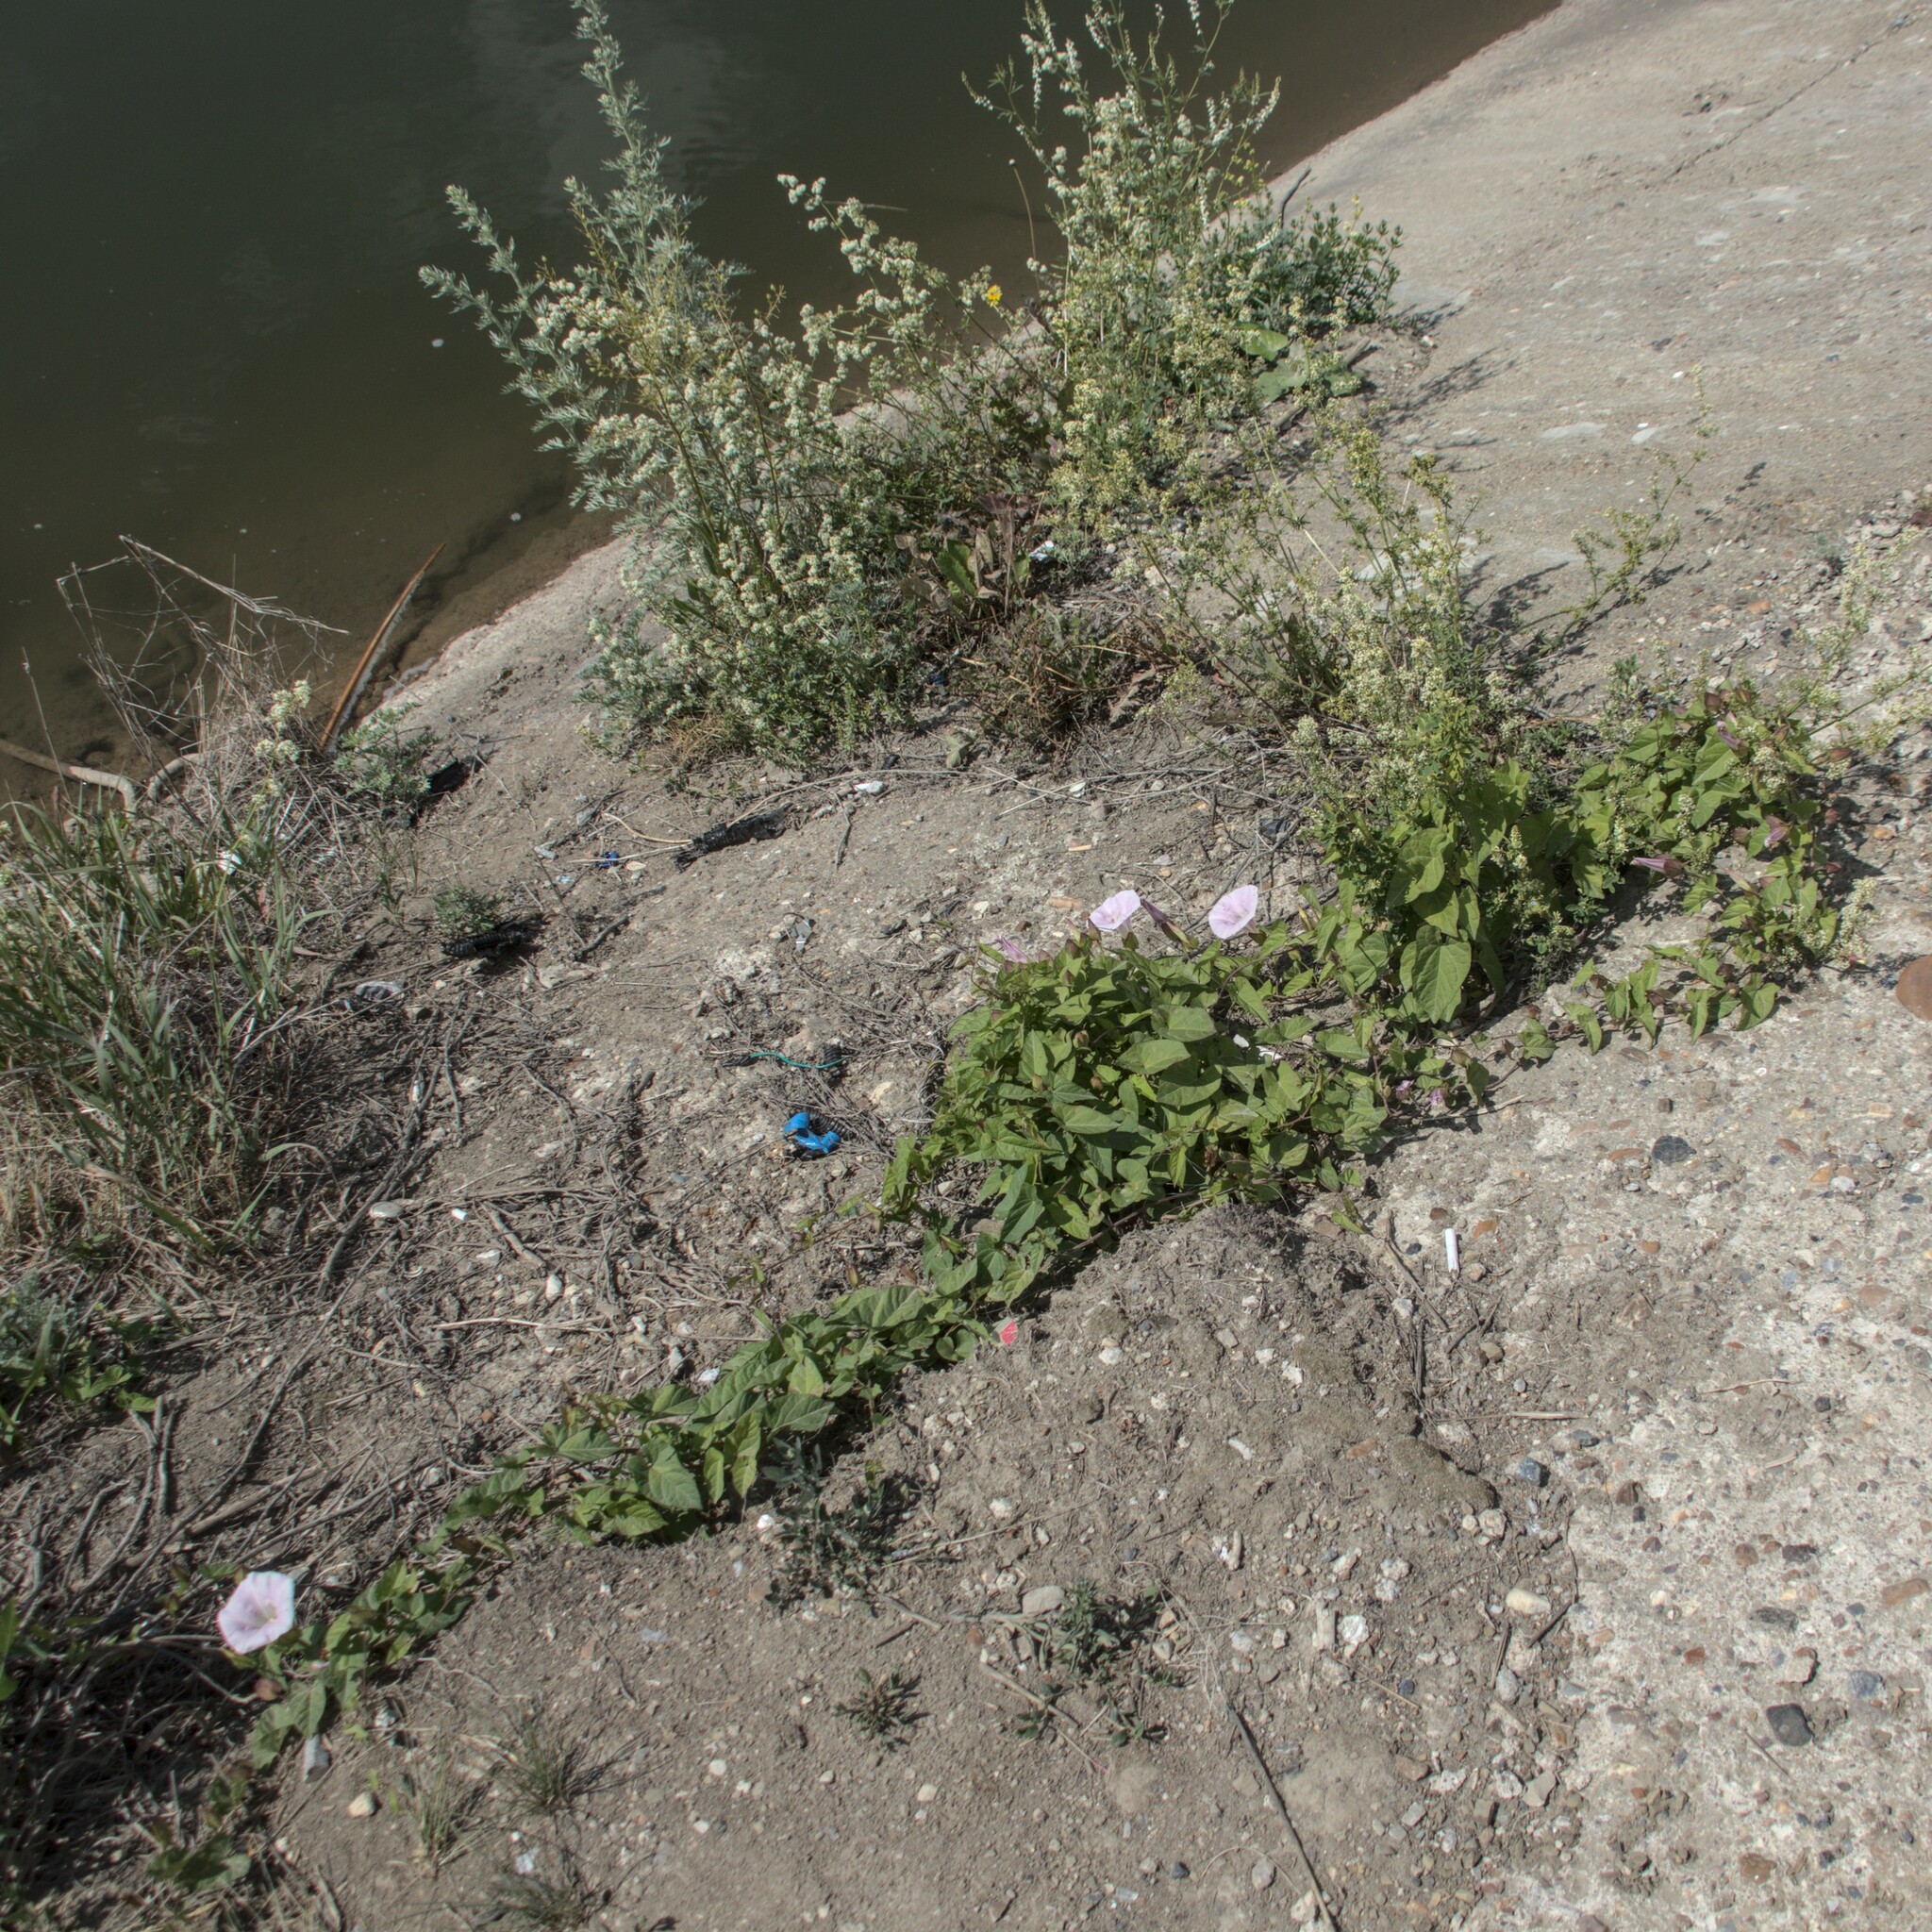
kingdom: Plantae
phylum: Tracheophyta
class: Magnoliopsida
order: Solanales
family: Convolvulaceae
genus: Calystegia
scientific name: Calystegia sepium
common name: Hedge bindweed
